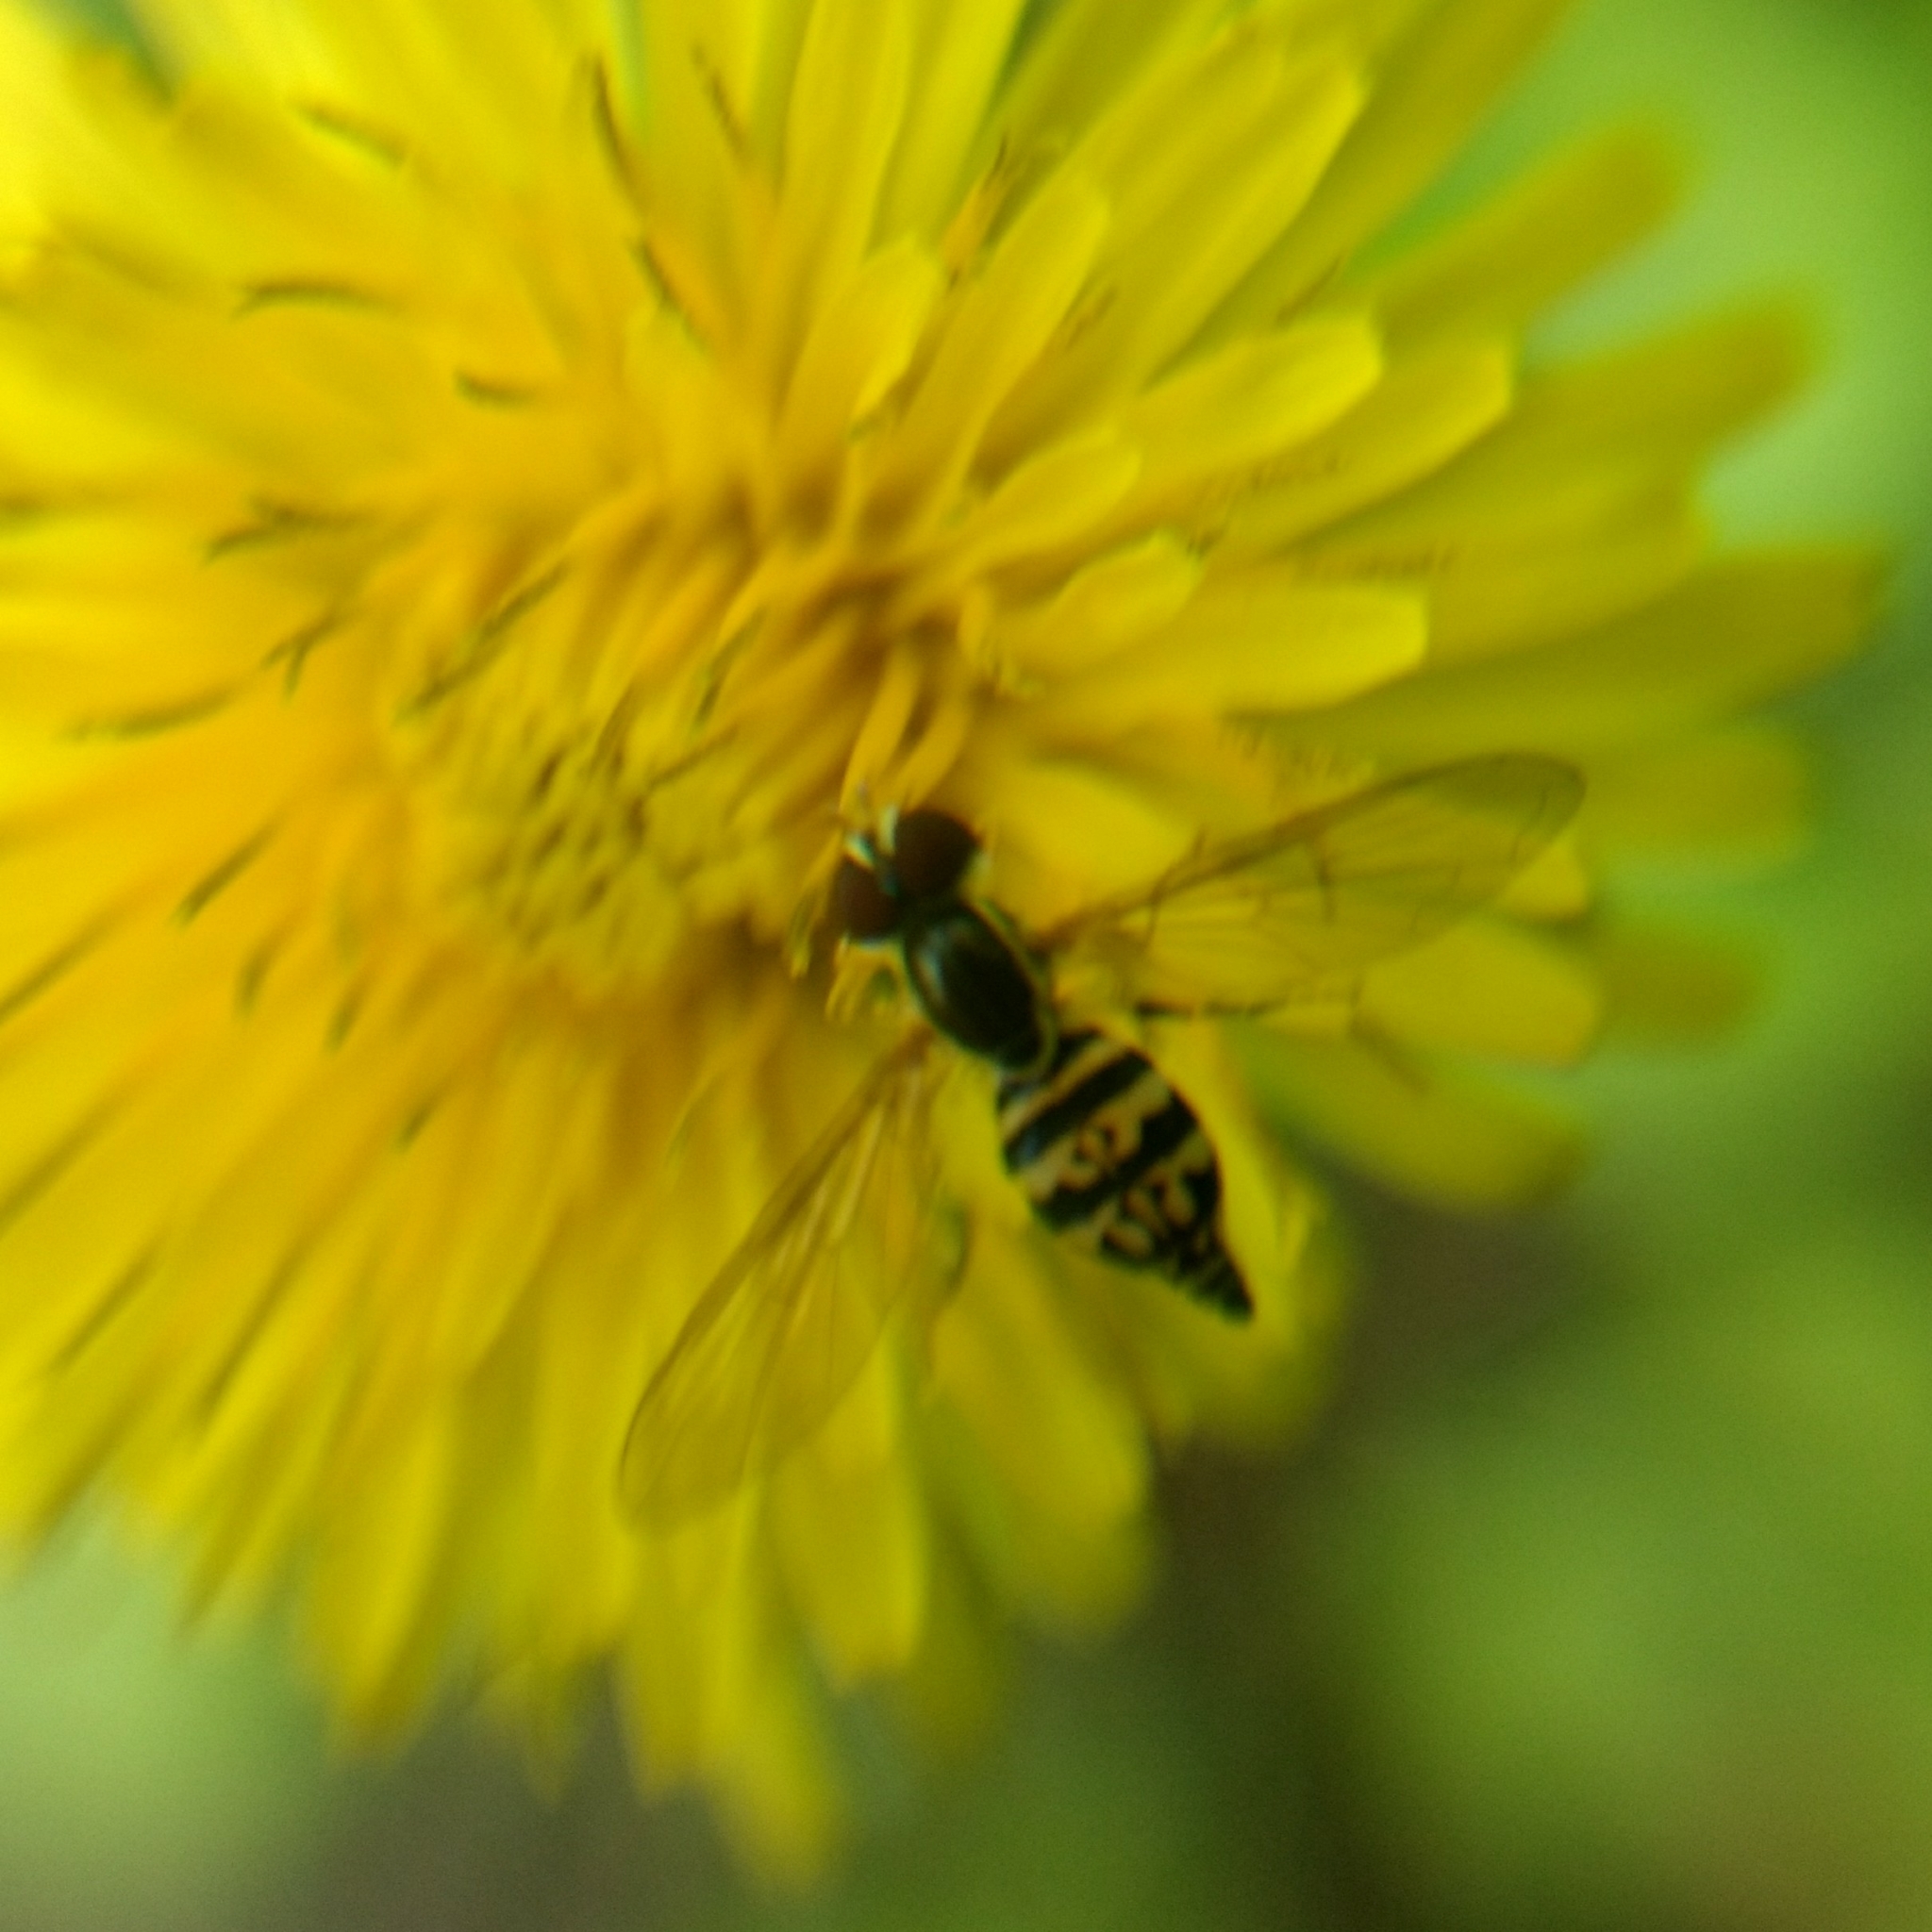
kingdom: Animalia
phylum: Arthropoda
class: Insecta
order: Diptera
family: Syrphidae
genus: Toxomerus
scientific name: Toxomerus geminatus
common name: Eastern calligrapher
